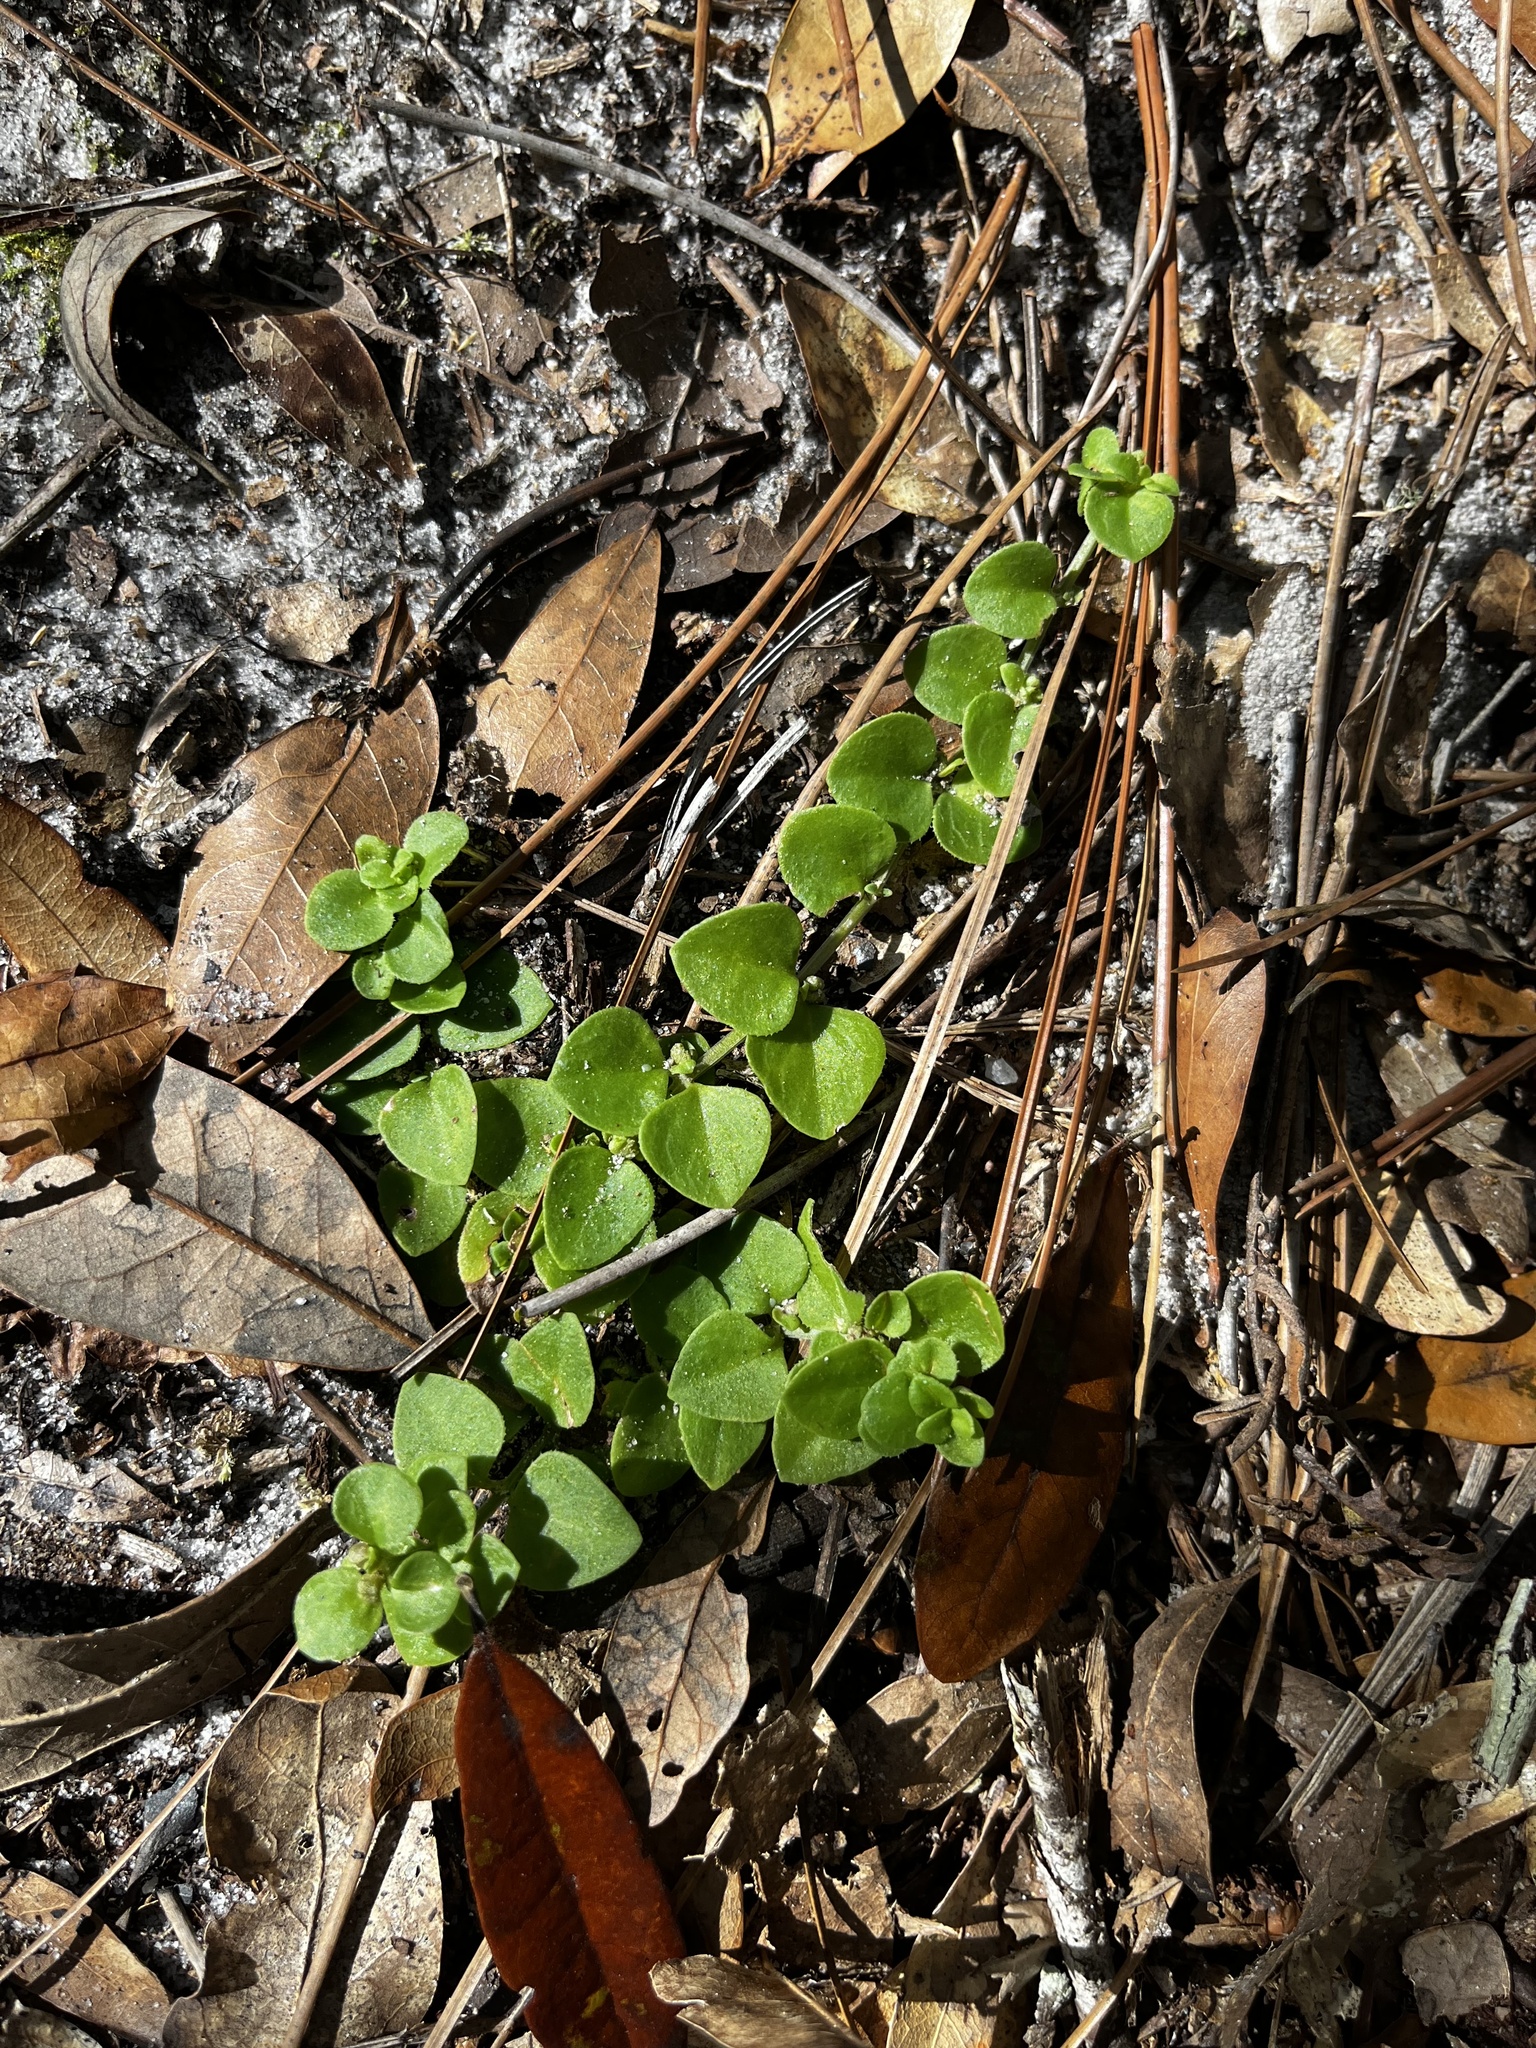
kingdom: Plantae
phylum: Tracheophyta
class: Magnoliopsida
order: Gentianales
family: Rubiaceae
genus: Houstonia
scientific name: Houstonia procumbens
